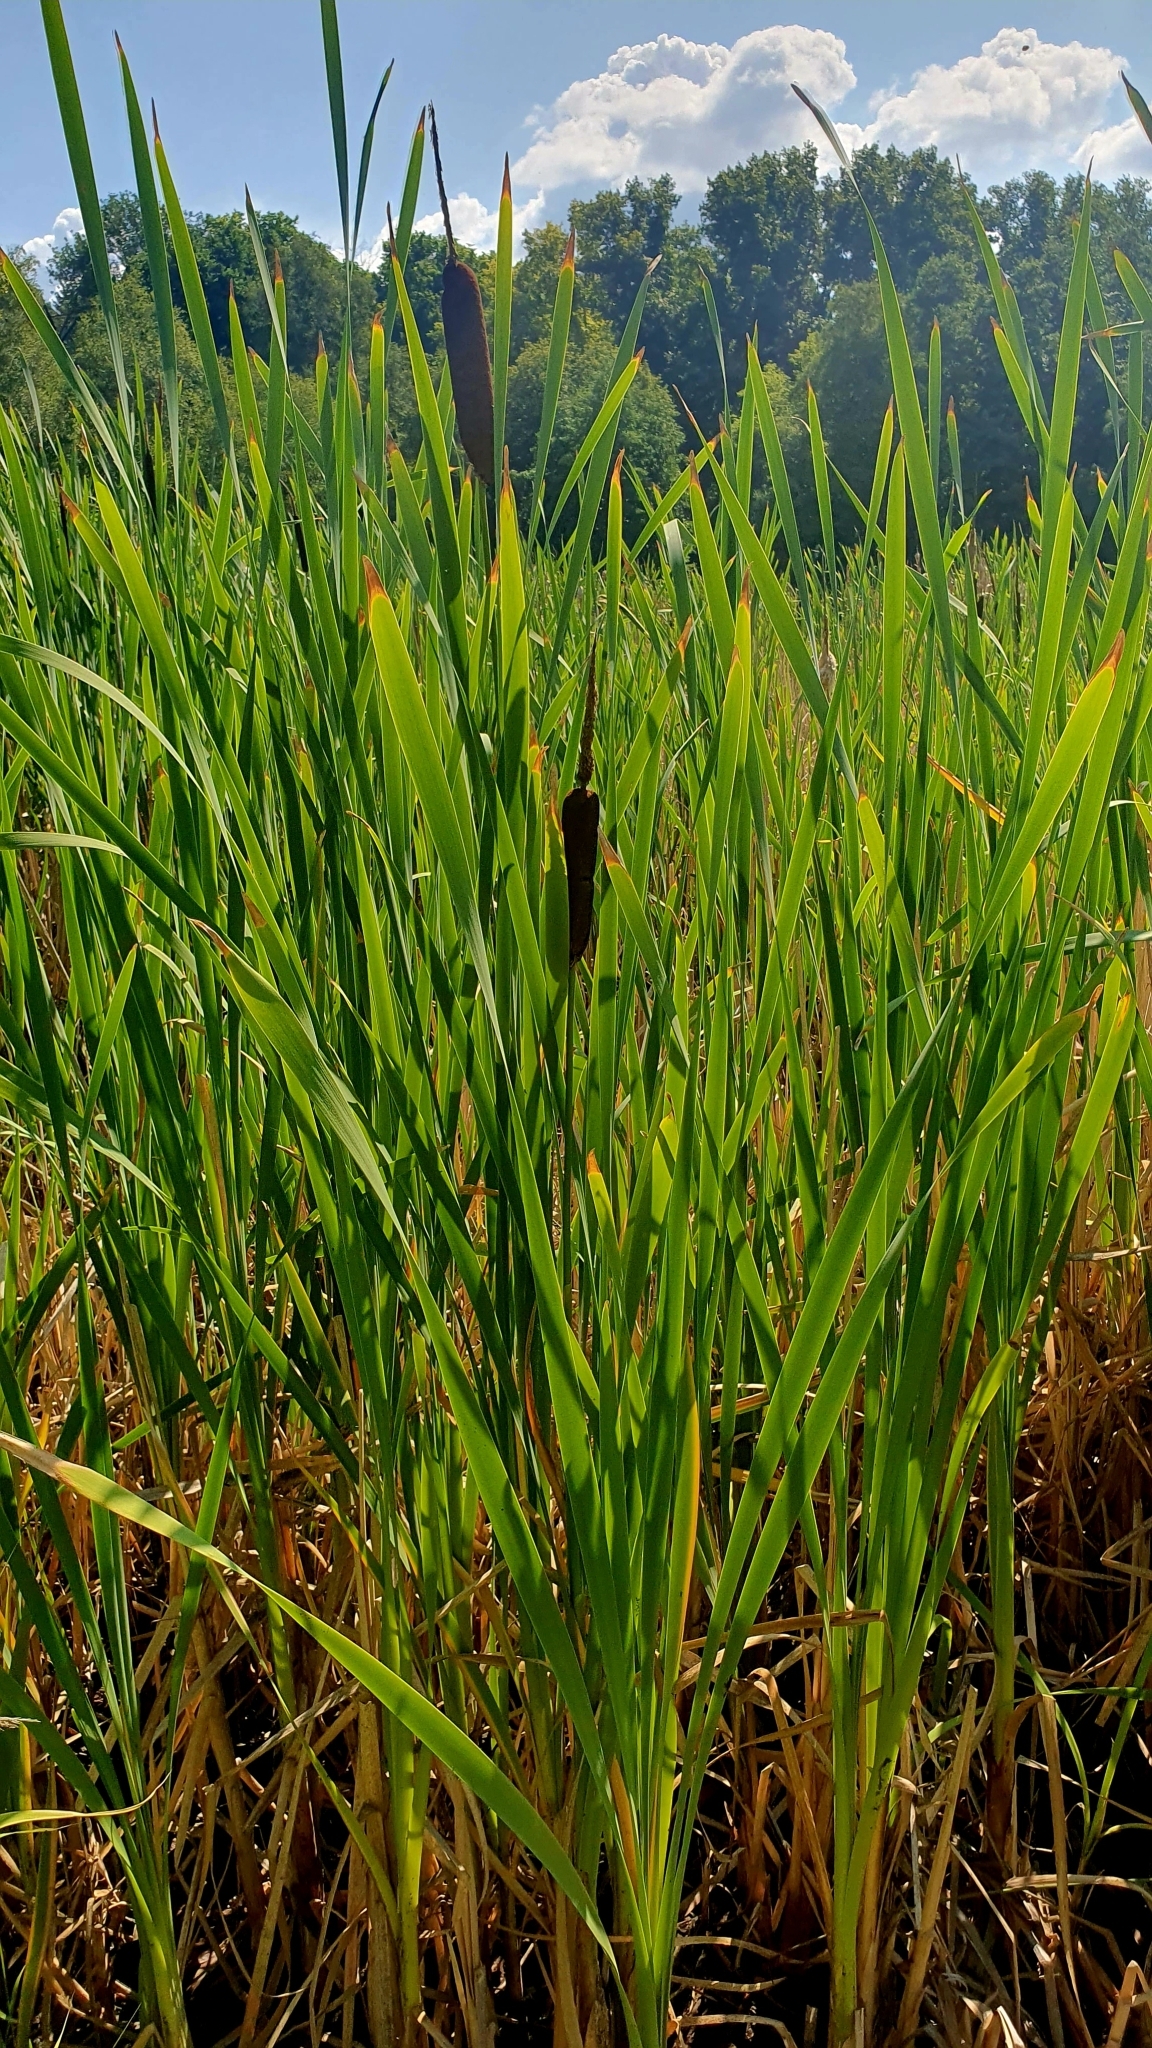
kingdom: Plantae
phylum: Tracheophyta
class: Liliopsida
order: Poales
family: Typhaceae
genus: Typha
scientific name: Typha latifolia
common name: Broadleaf cattail
